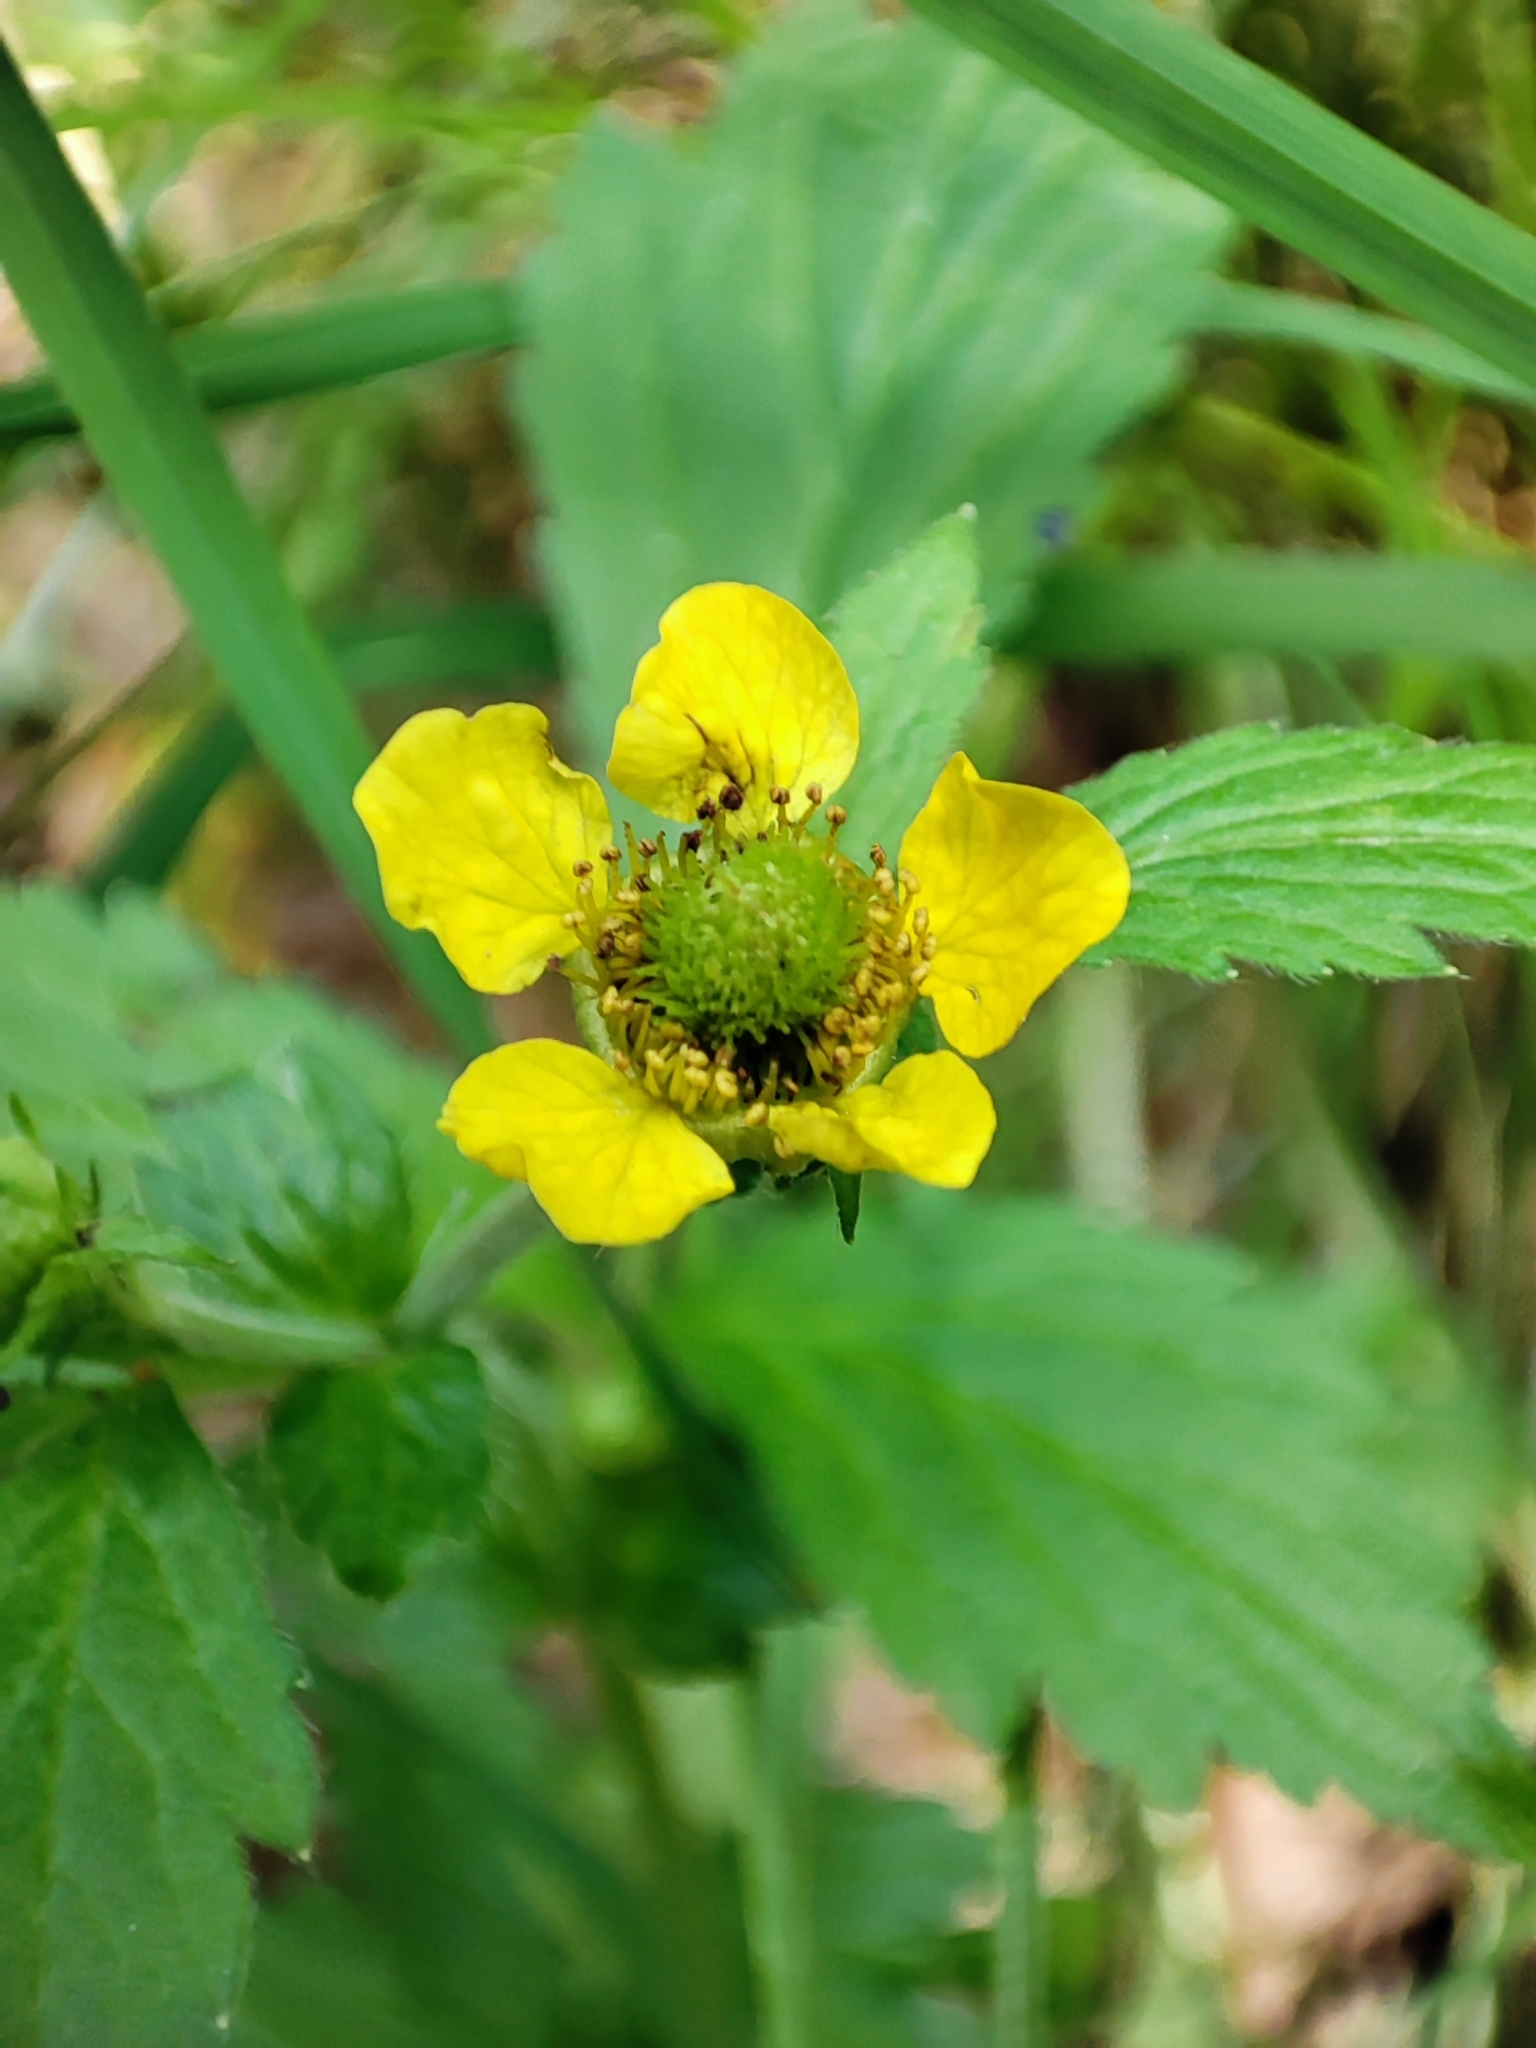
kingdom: Plantae
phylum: Tracheophyta
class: Magnoliopsida
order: Rosales
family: Rosaceae
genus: Geum
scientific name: Geum aleppicum
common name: Yellow avens
